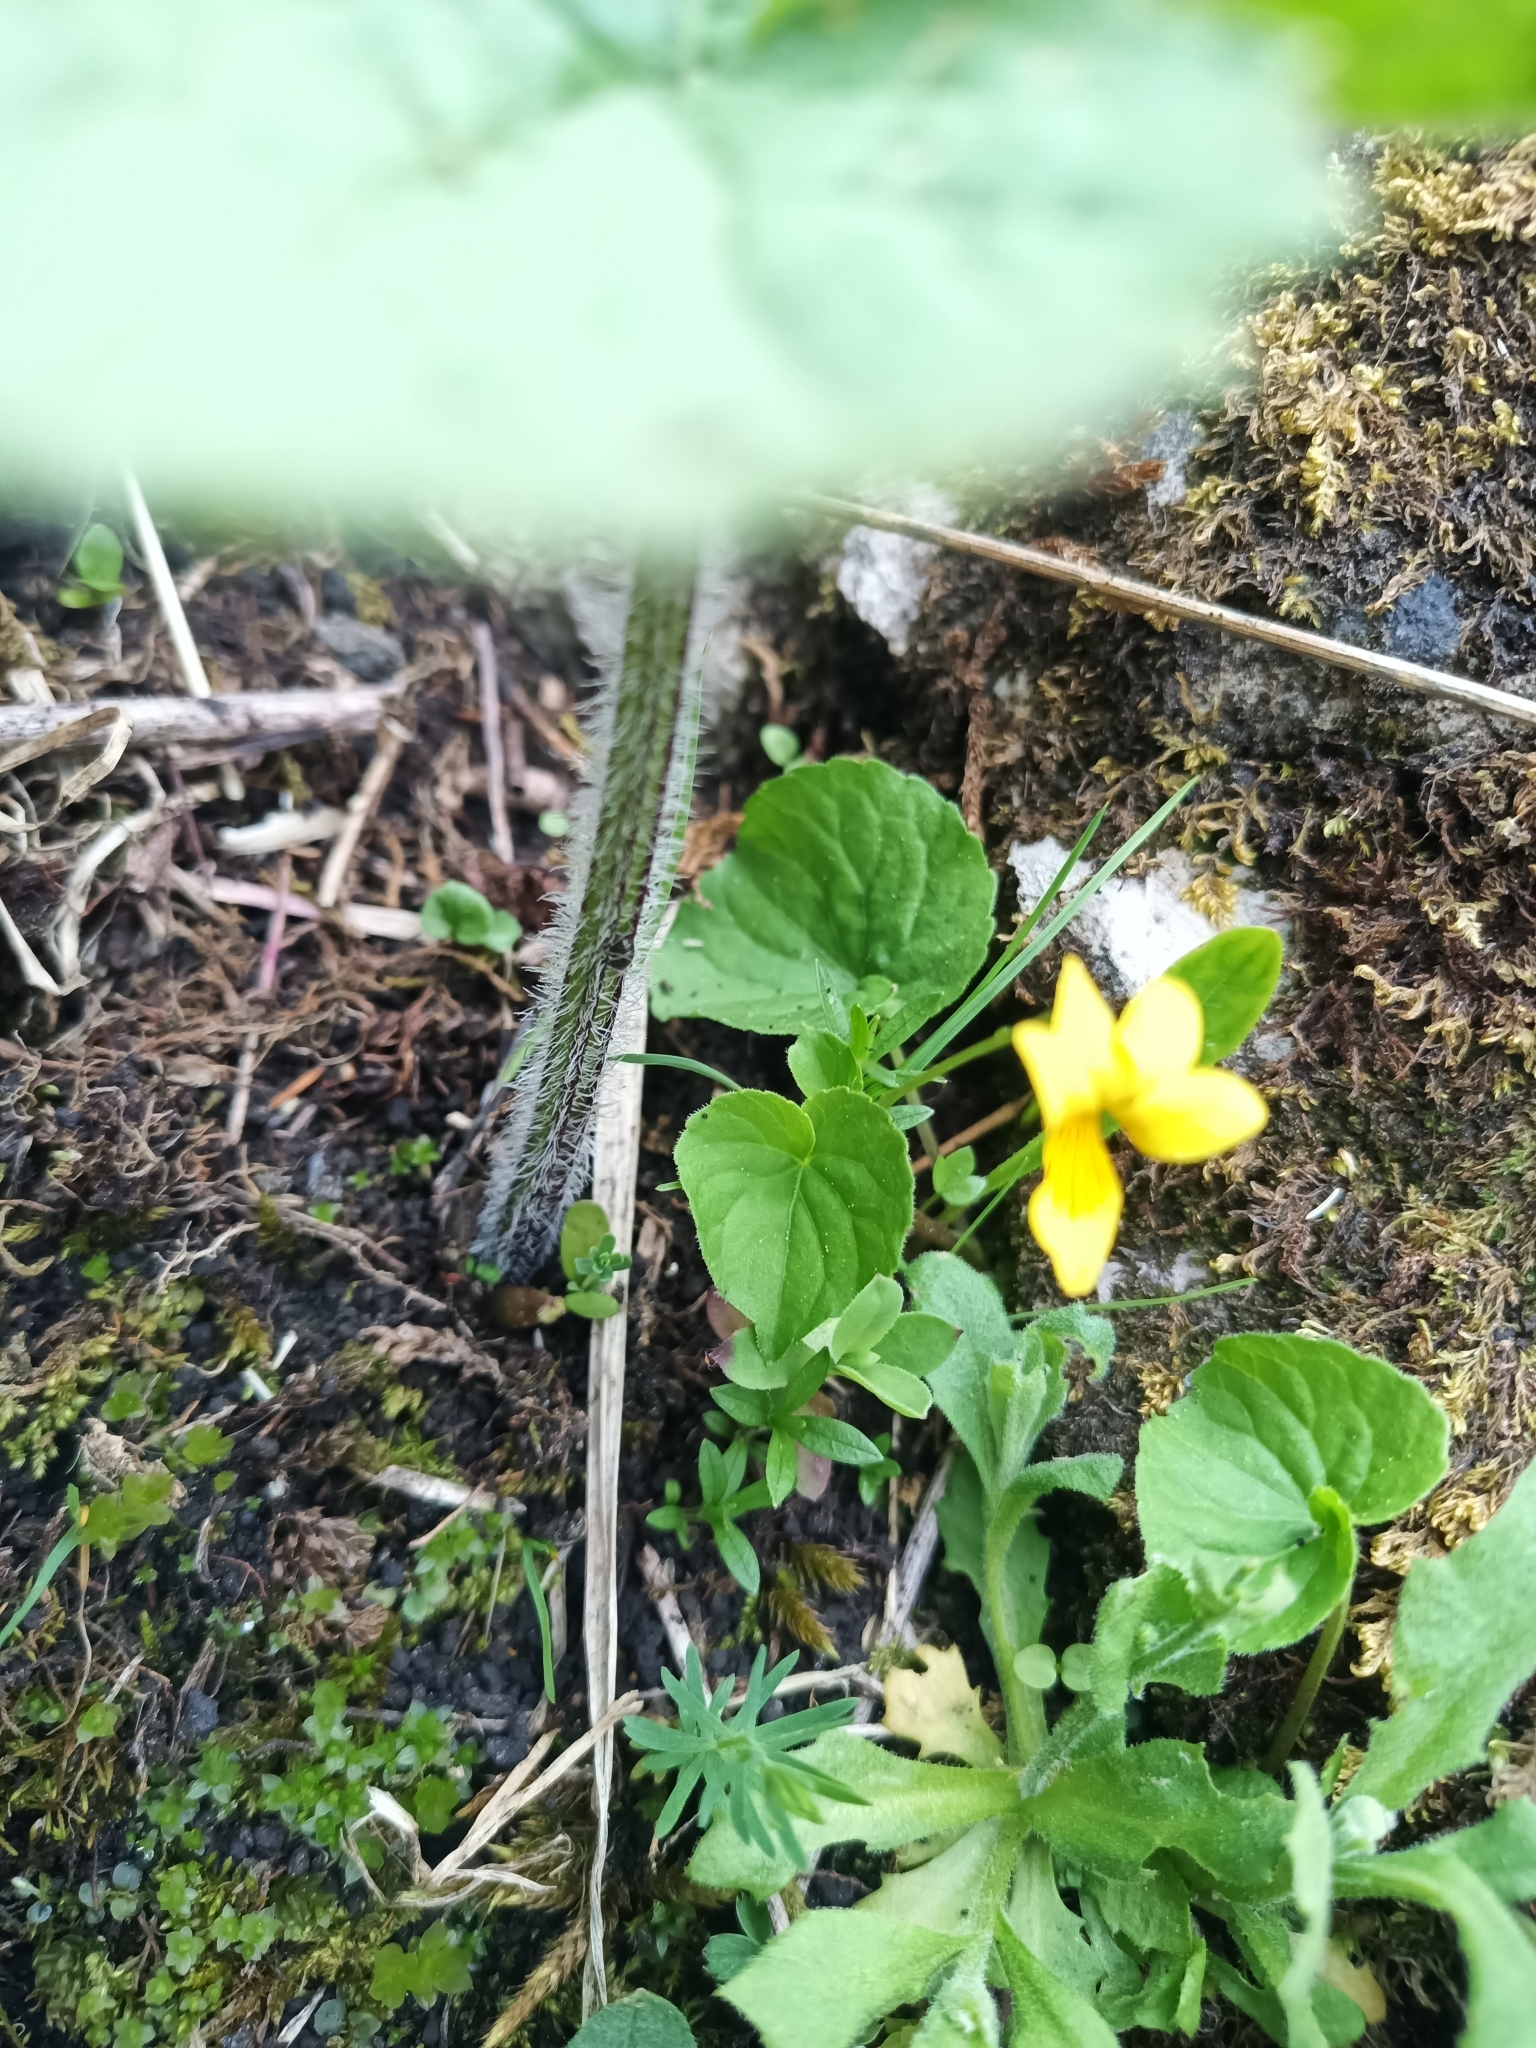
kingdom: Plantae
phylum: Tracheophyta
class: Magnoliopsida
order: Malpighiales
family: Violaceae
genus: Viola
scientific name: Viola biflora
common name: Alpine yellow violet
